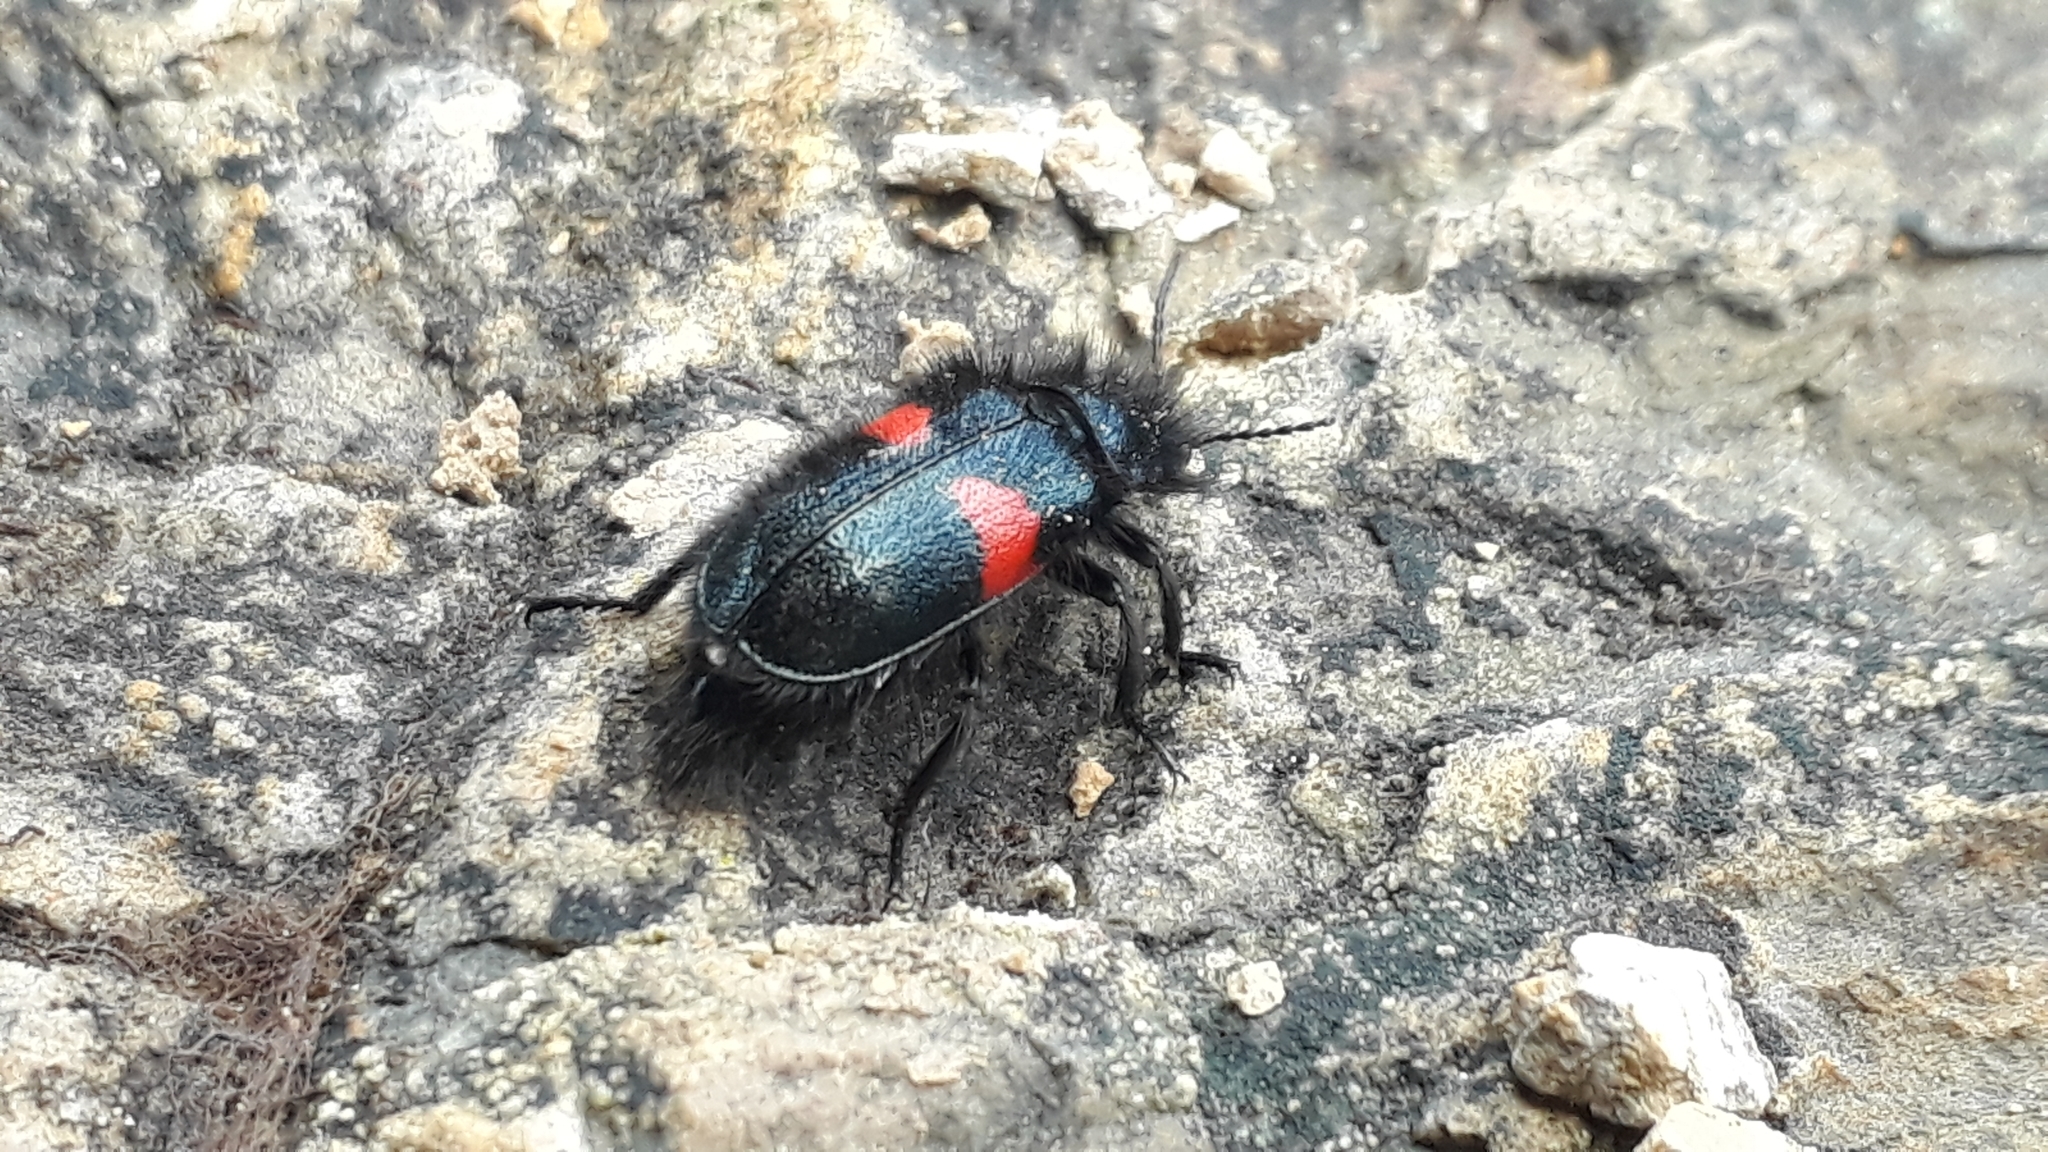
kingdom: Animalia
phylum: Arthropoda
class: Insecta
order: Coleoptera
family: Melyridae
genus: Astylus
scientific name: Astylus
